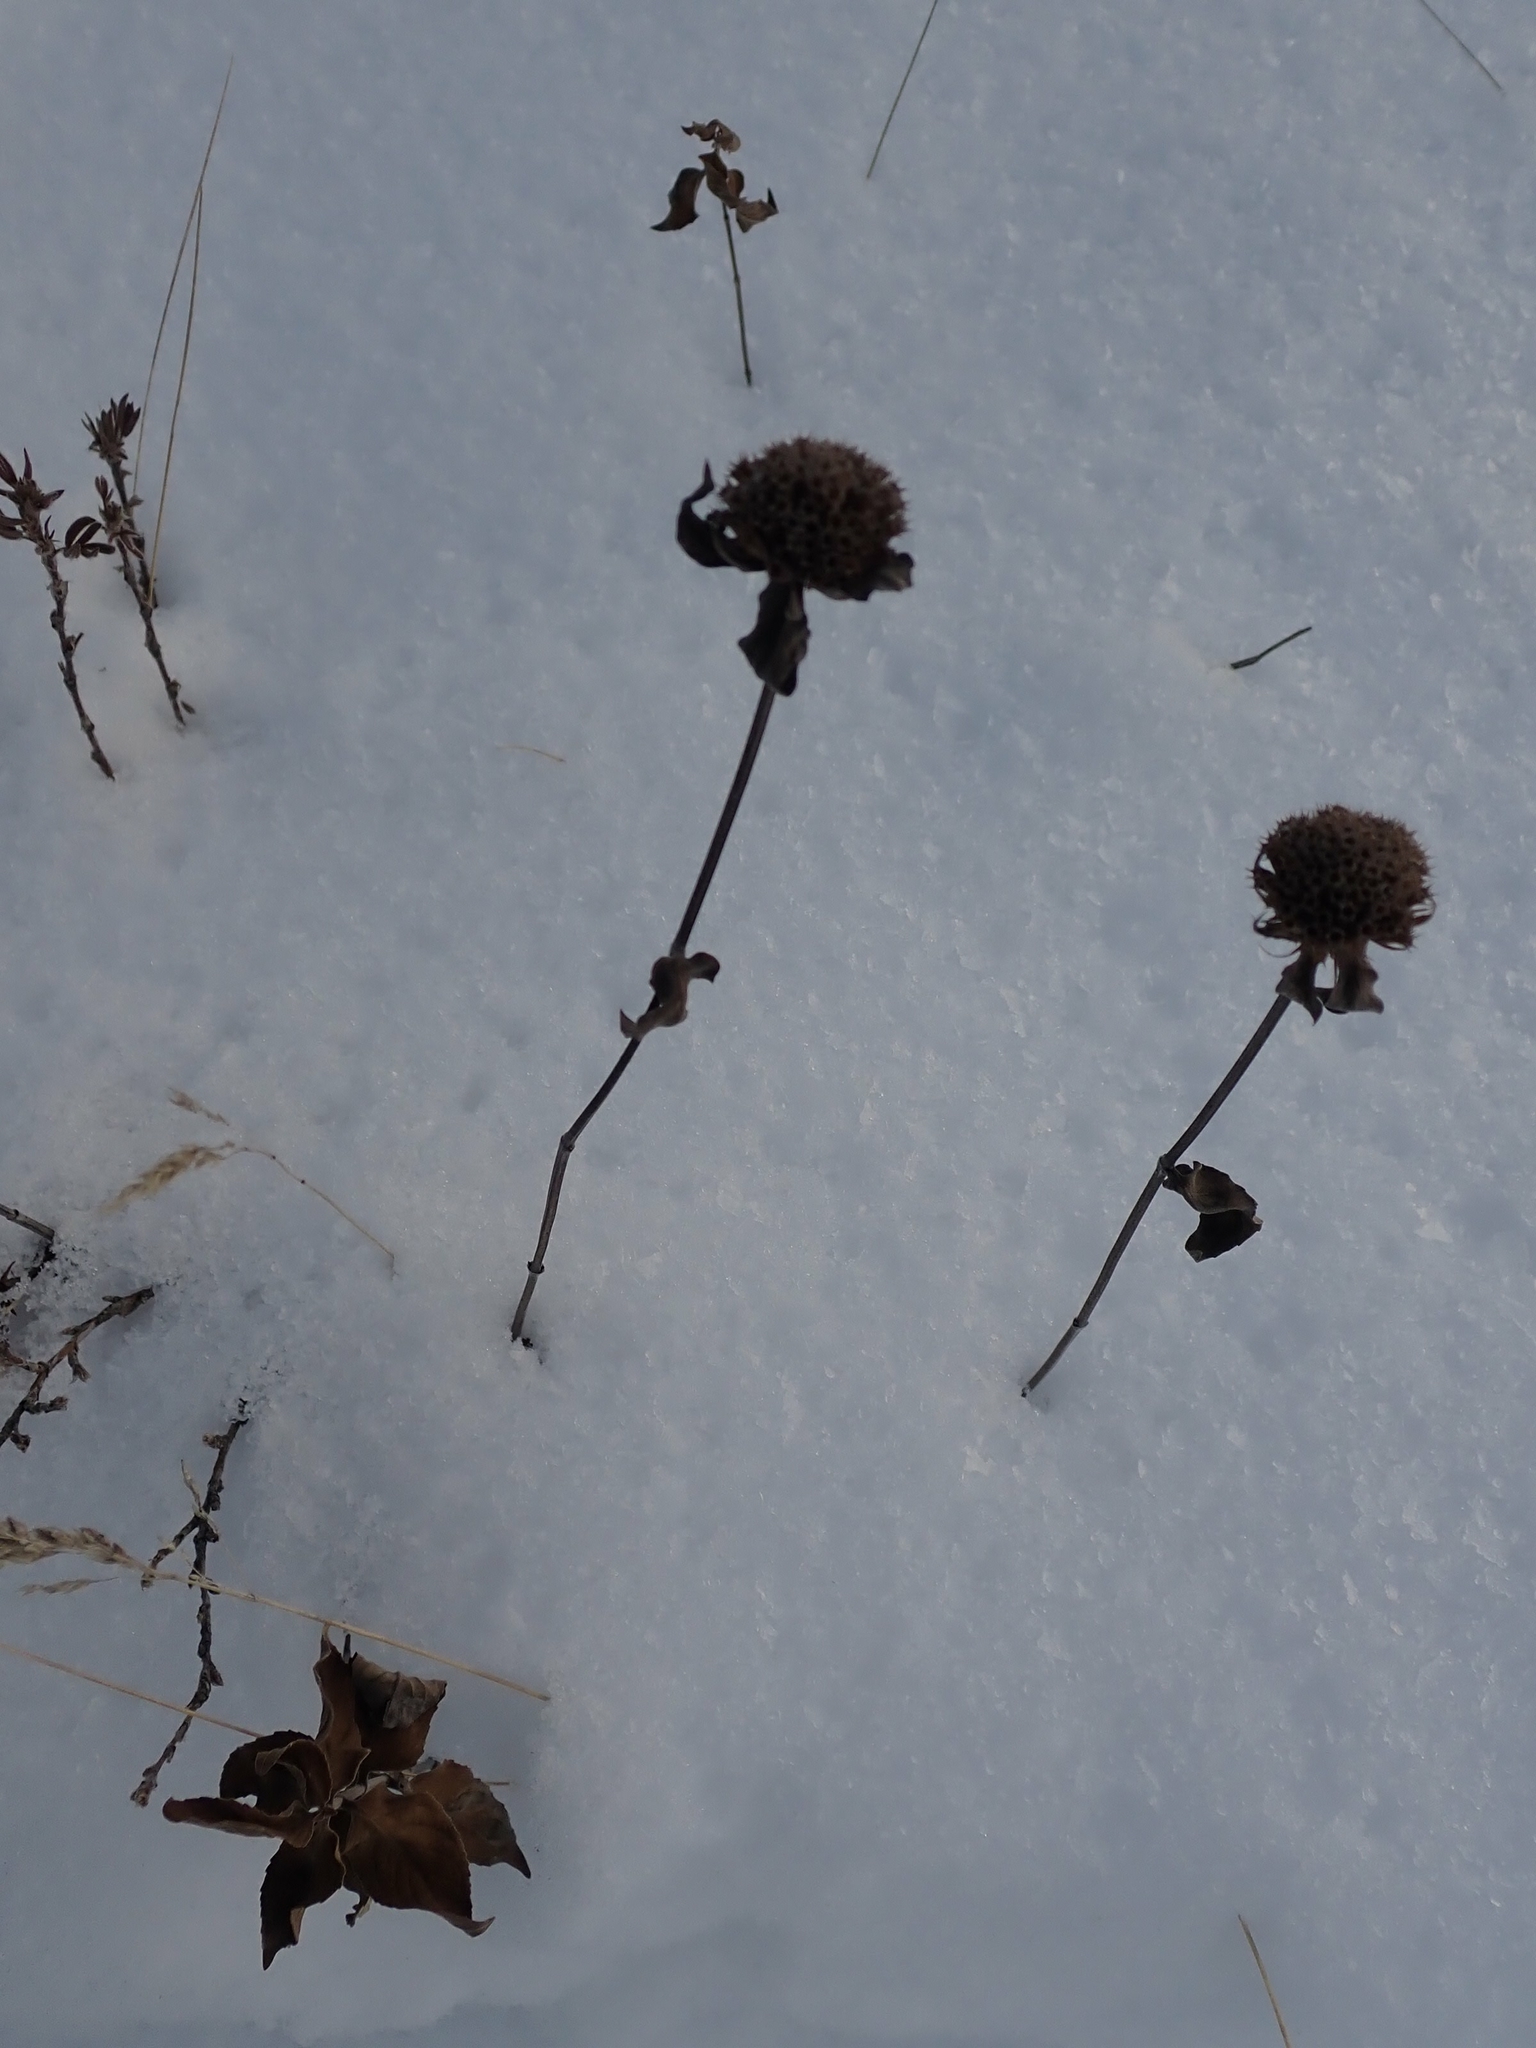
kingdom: Plantae
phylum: Tracheophyta
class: Magnoliopsida
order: Lamiales
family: Lamiaceae
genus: Monarda
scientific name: Monarda fistulosa
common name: Purple beebalm
